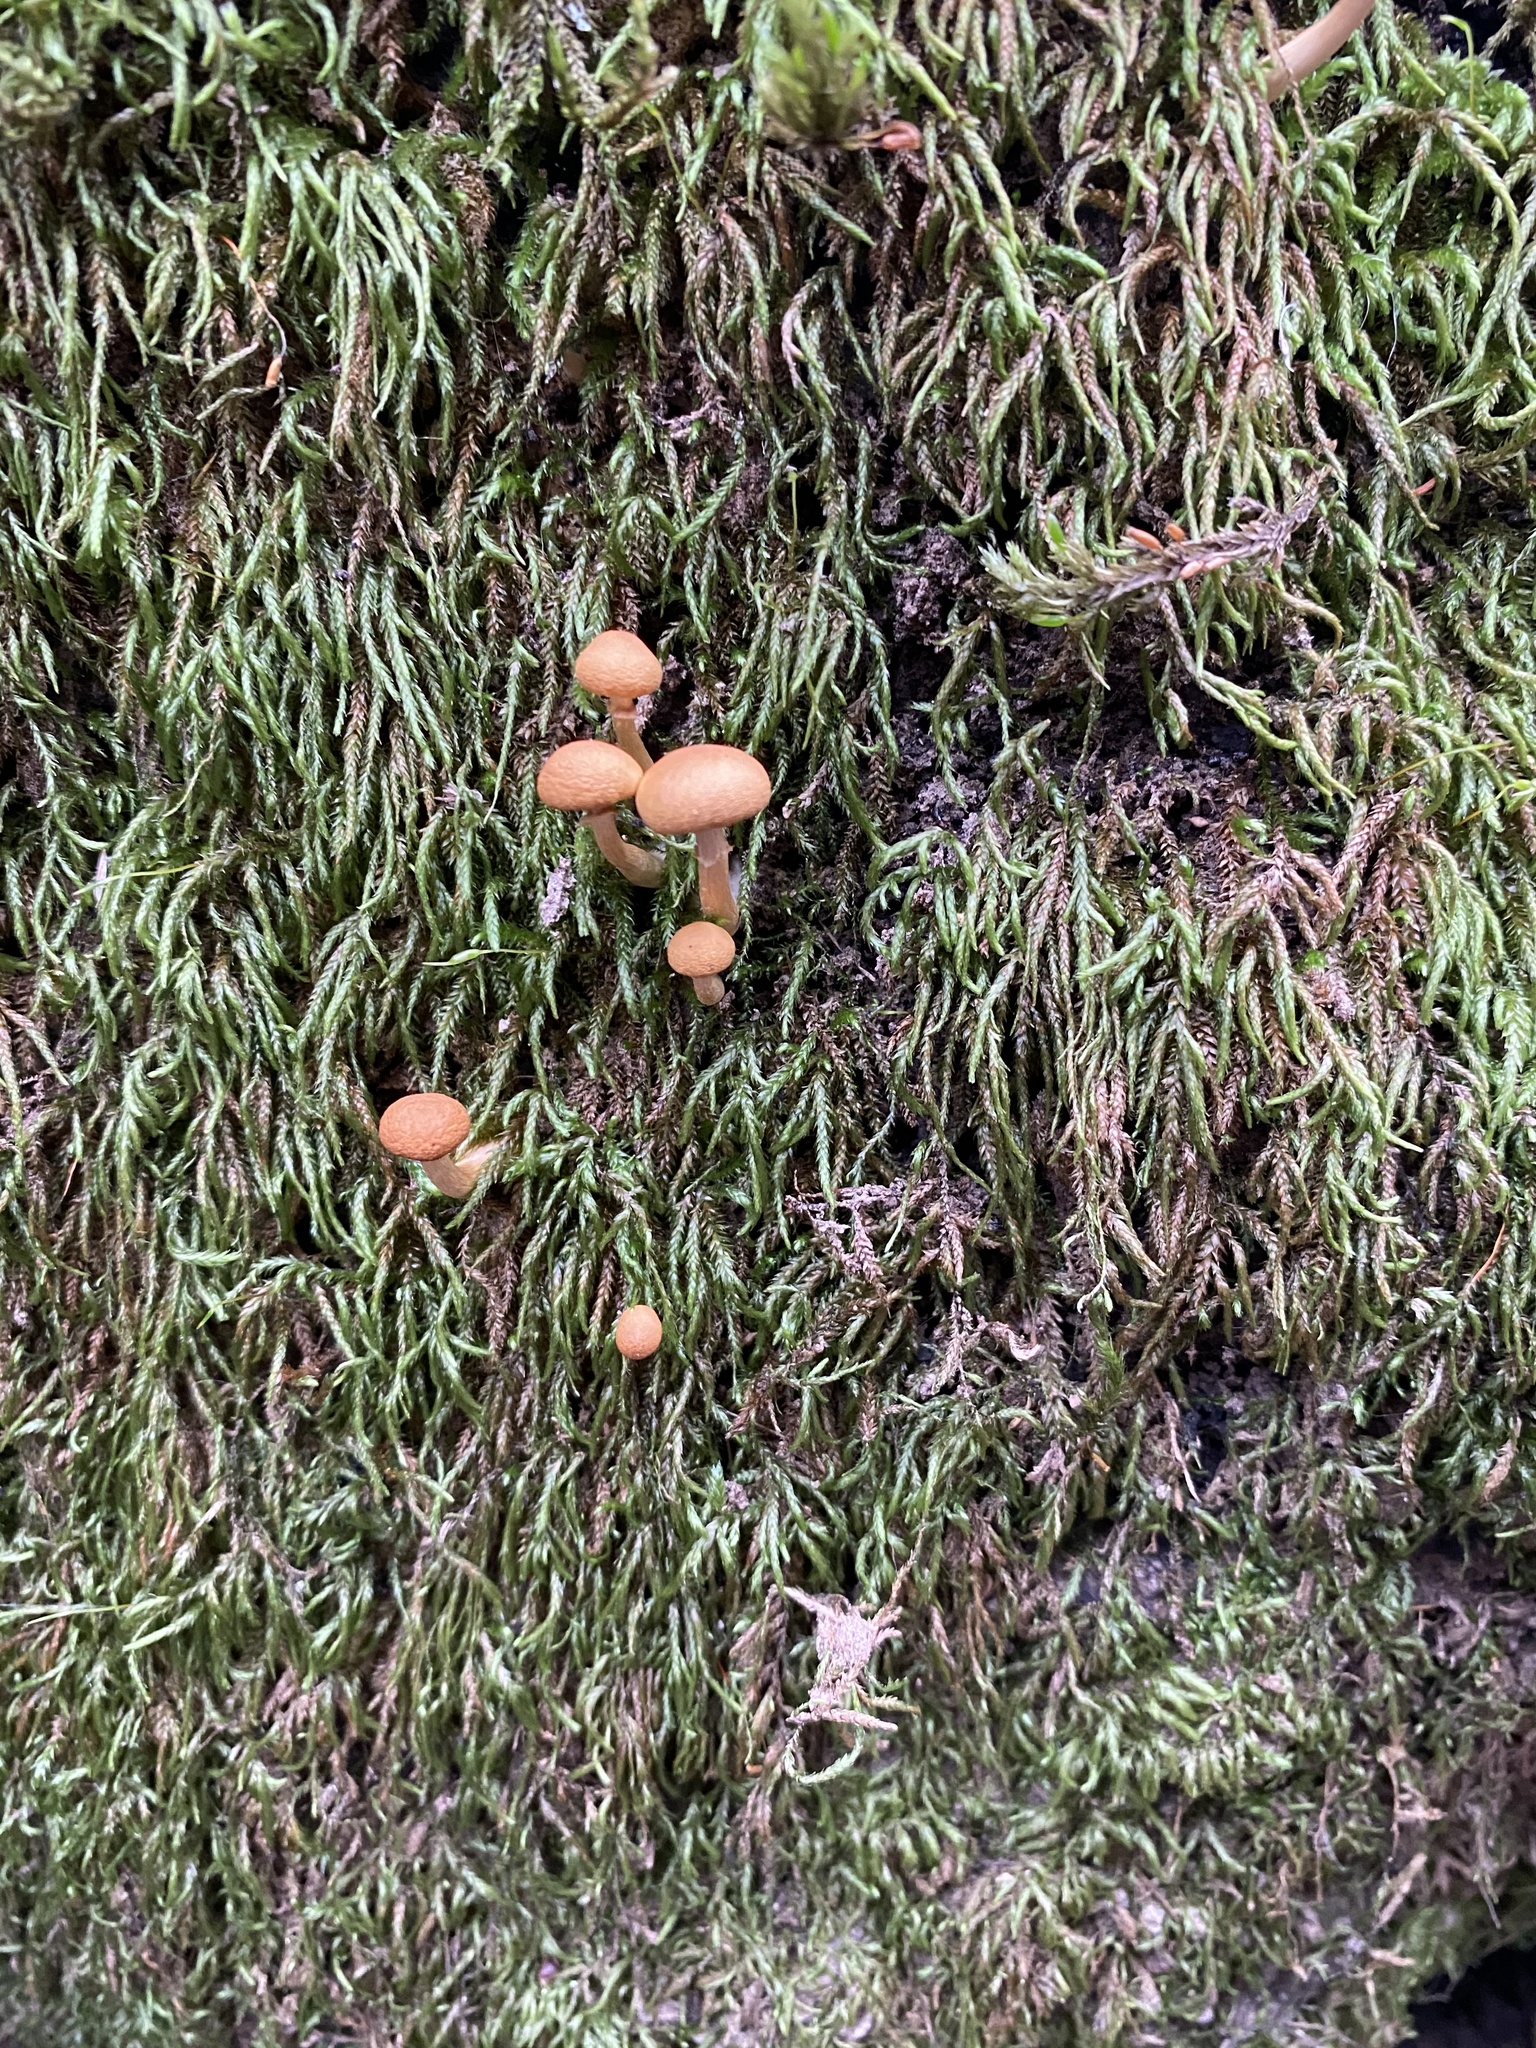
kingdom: Fungi
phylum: Basidiomycota
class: Agaricomycetes
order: Agaricales
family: Hymenogastraceae
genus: Galerina
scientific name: Galerina marginata
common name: Funeral bell
